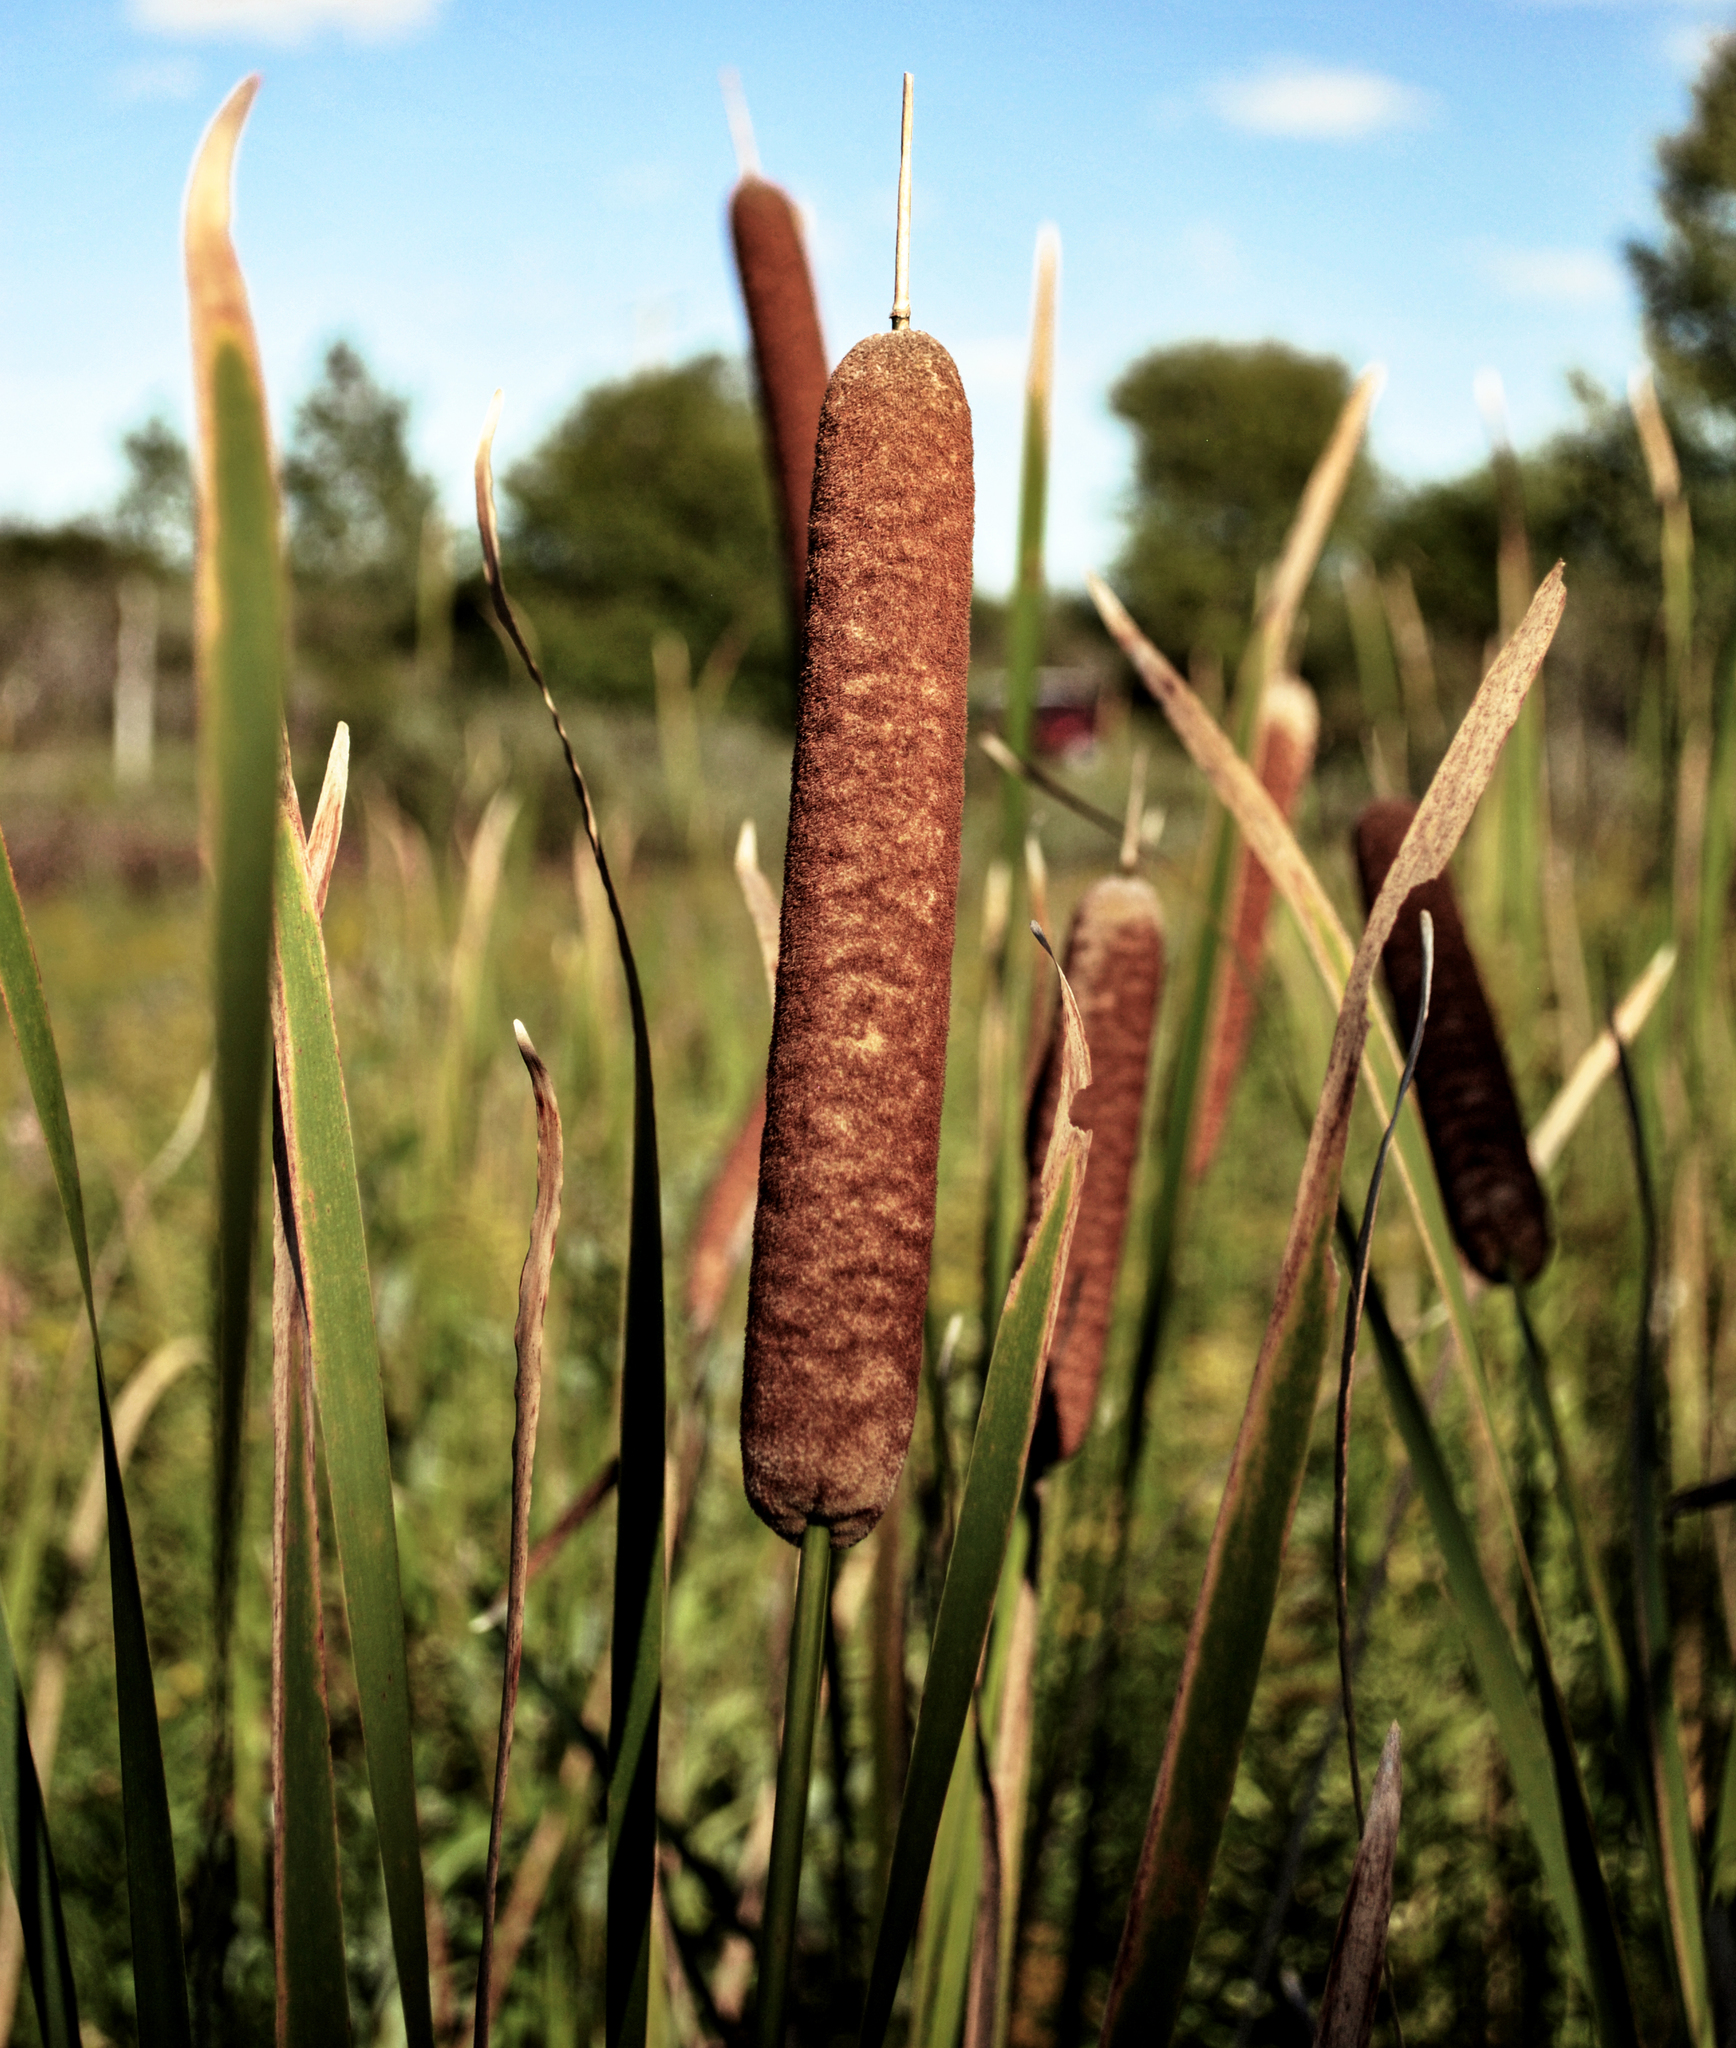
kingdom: Plantae
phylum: Tracheophyta
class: Liliopsida
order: Poales
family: Typhaceae
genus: Typha
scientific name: Typha latifolia
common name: Broadleaf cattail
